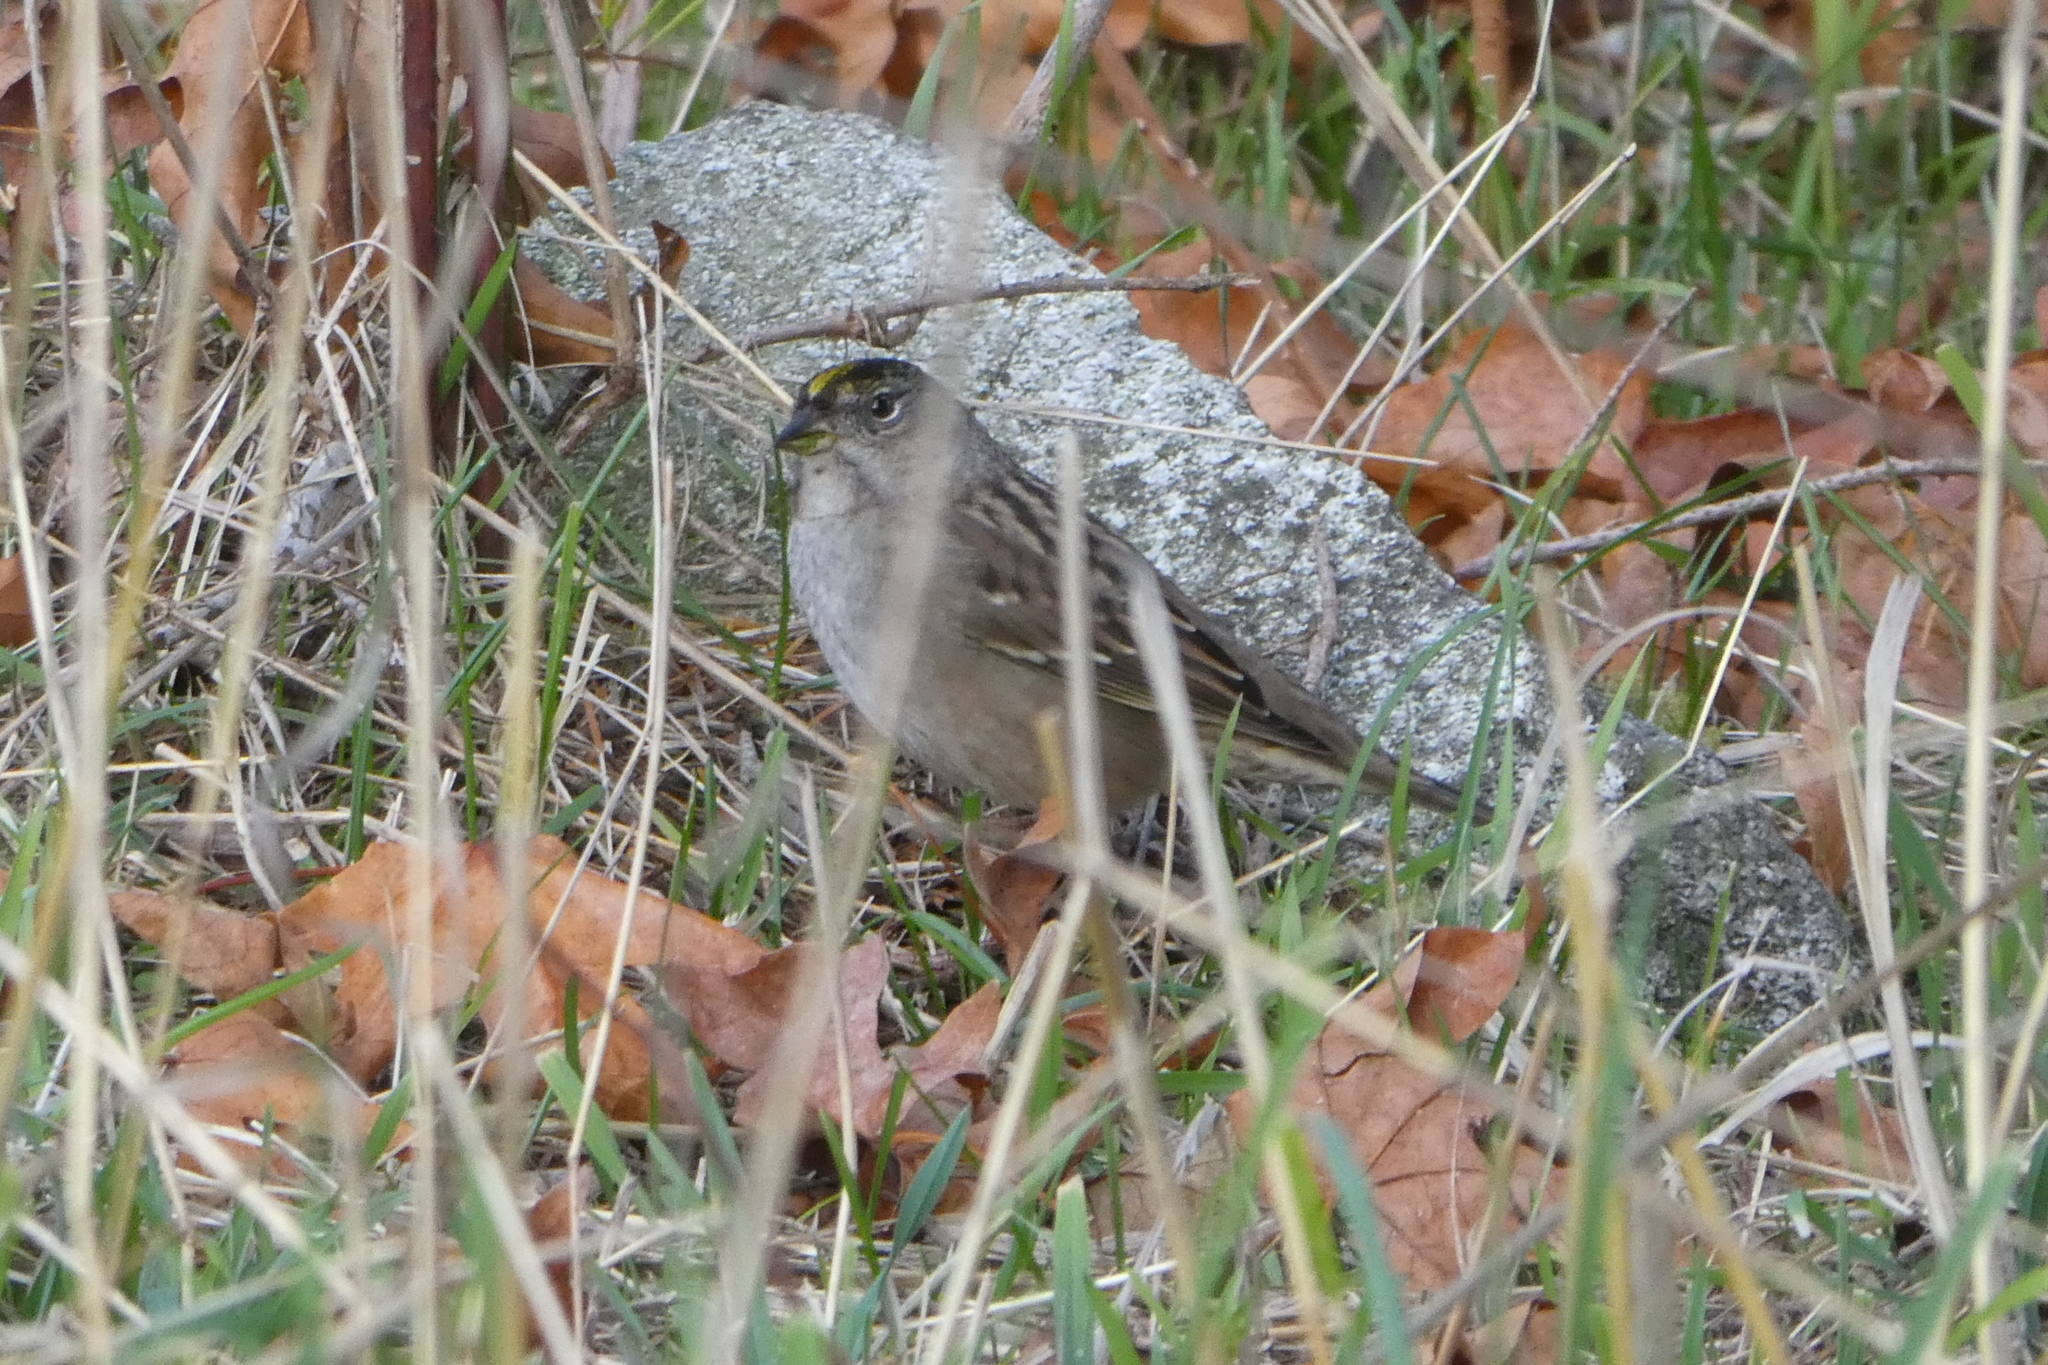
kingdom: Animalia
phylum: Chordata
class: Aves
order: Passeriformes
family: Passerellidae
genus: Zonotrichia
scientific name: Zonotrichia atricapilla
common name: Golden-crowned sparrow
